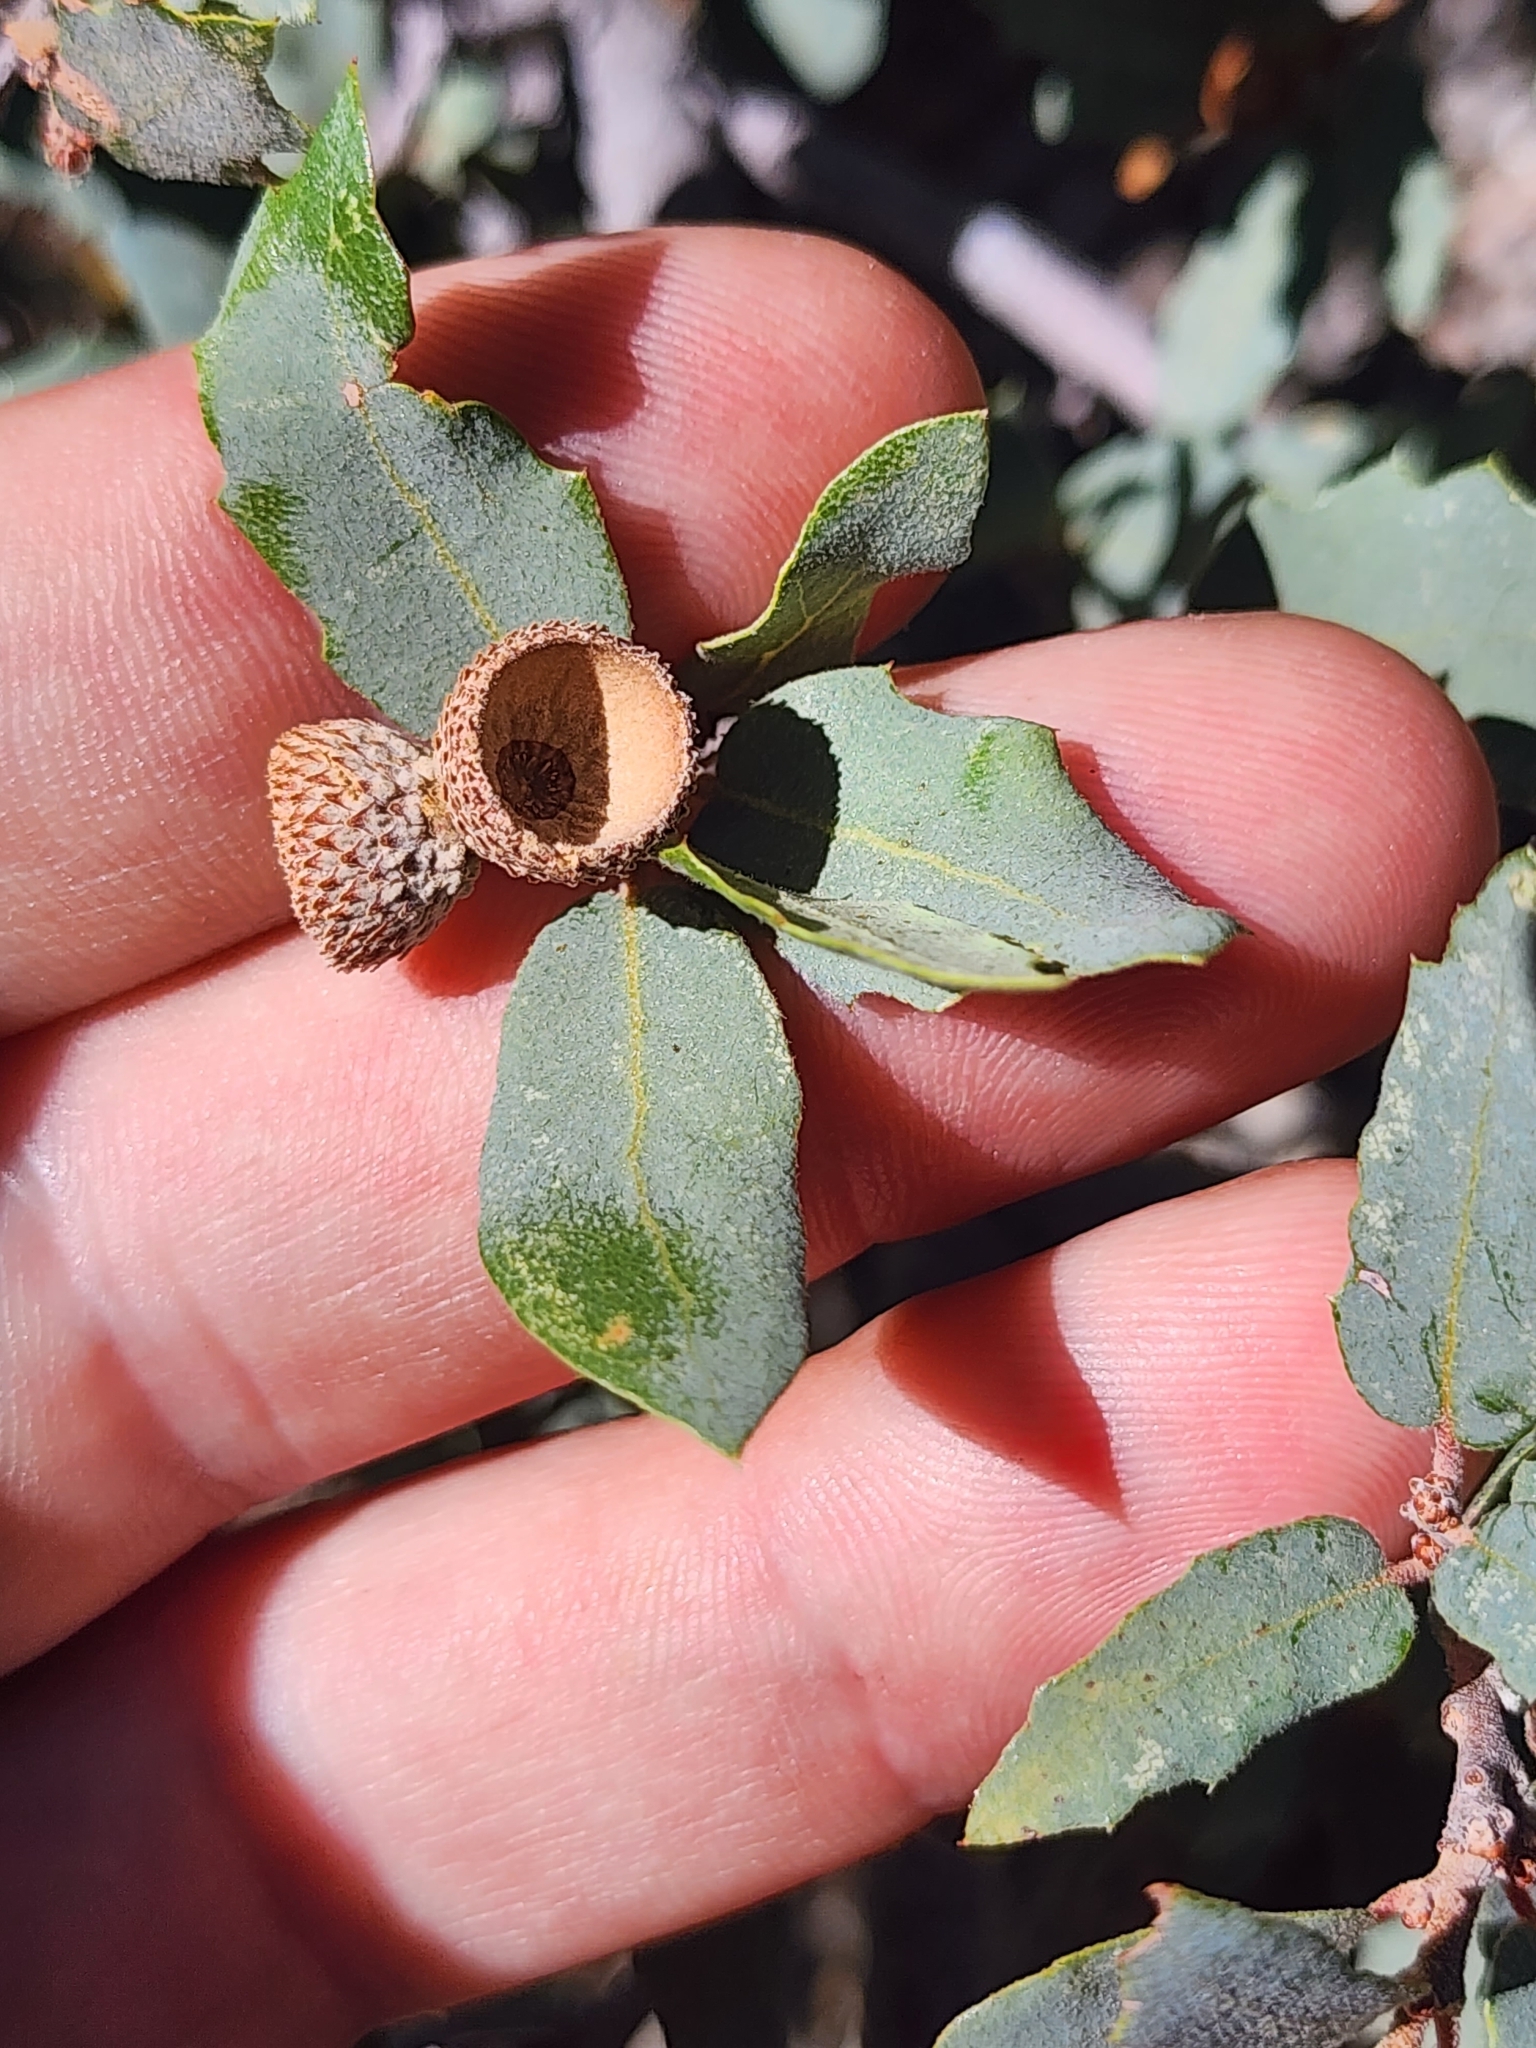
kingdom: Plantae
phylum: Tracheophyta
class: Magnoliopsida
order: Fagales
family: Fagaceae
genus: Quercus
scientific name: Quercus grisea
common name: Gray oak
